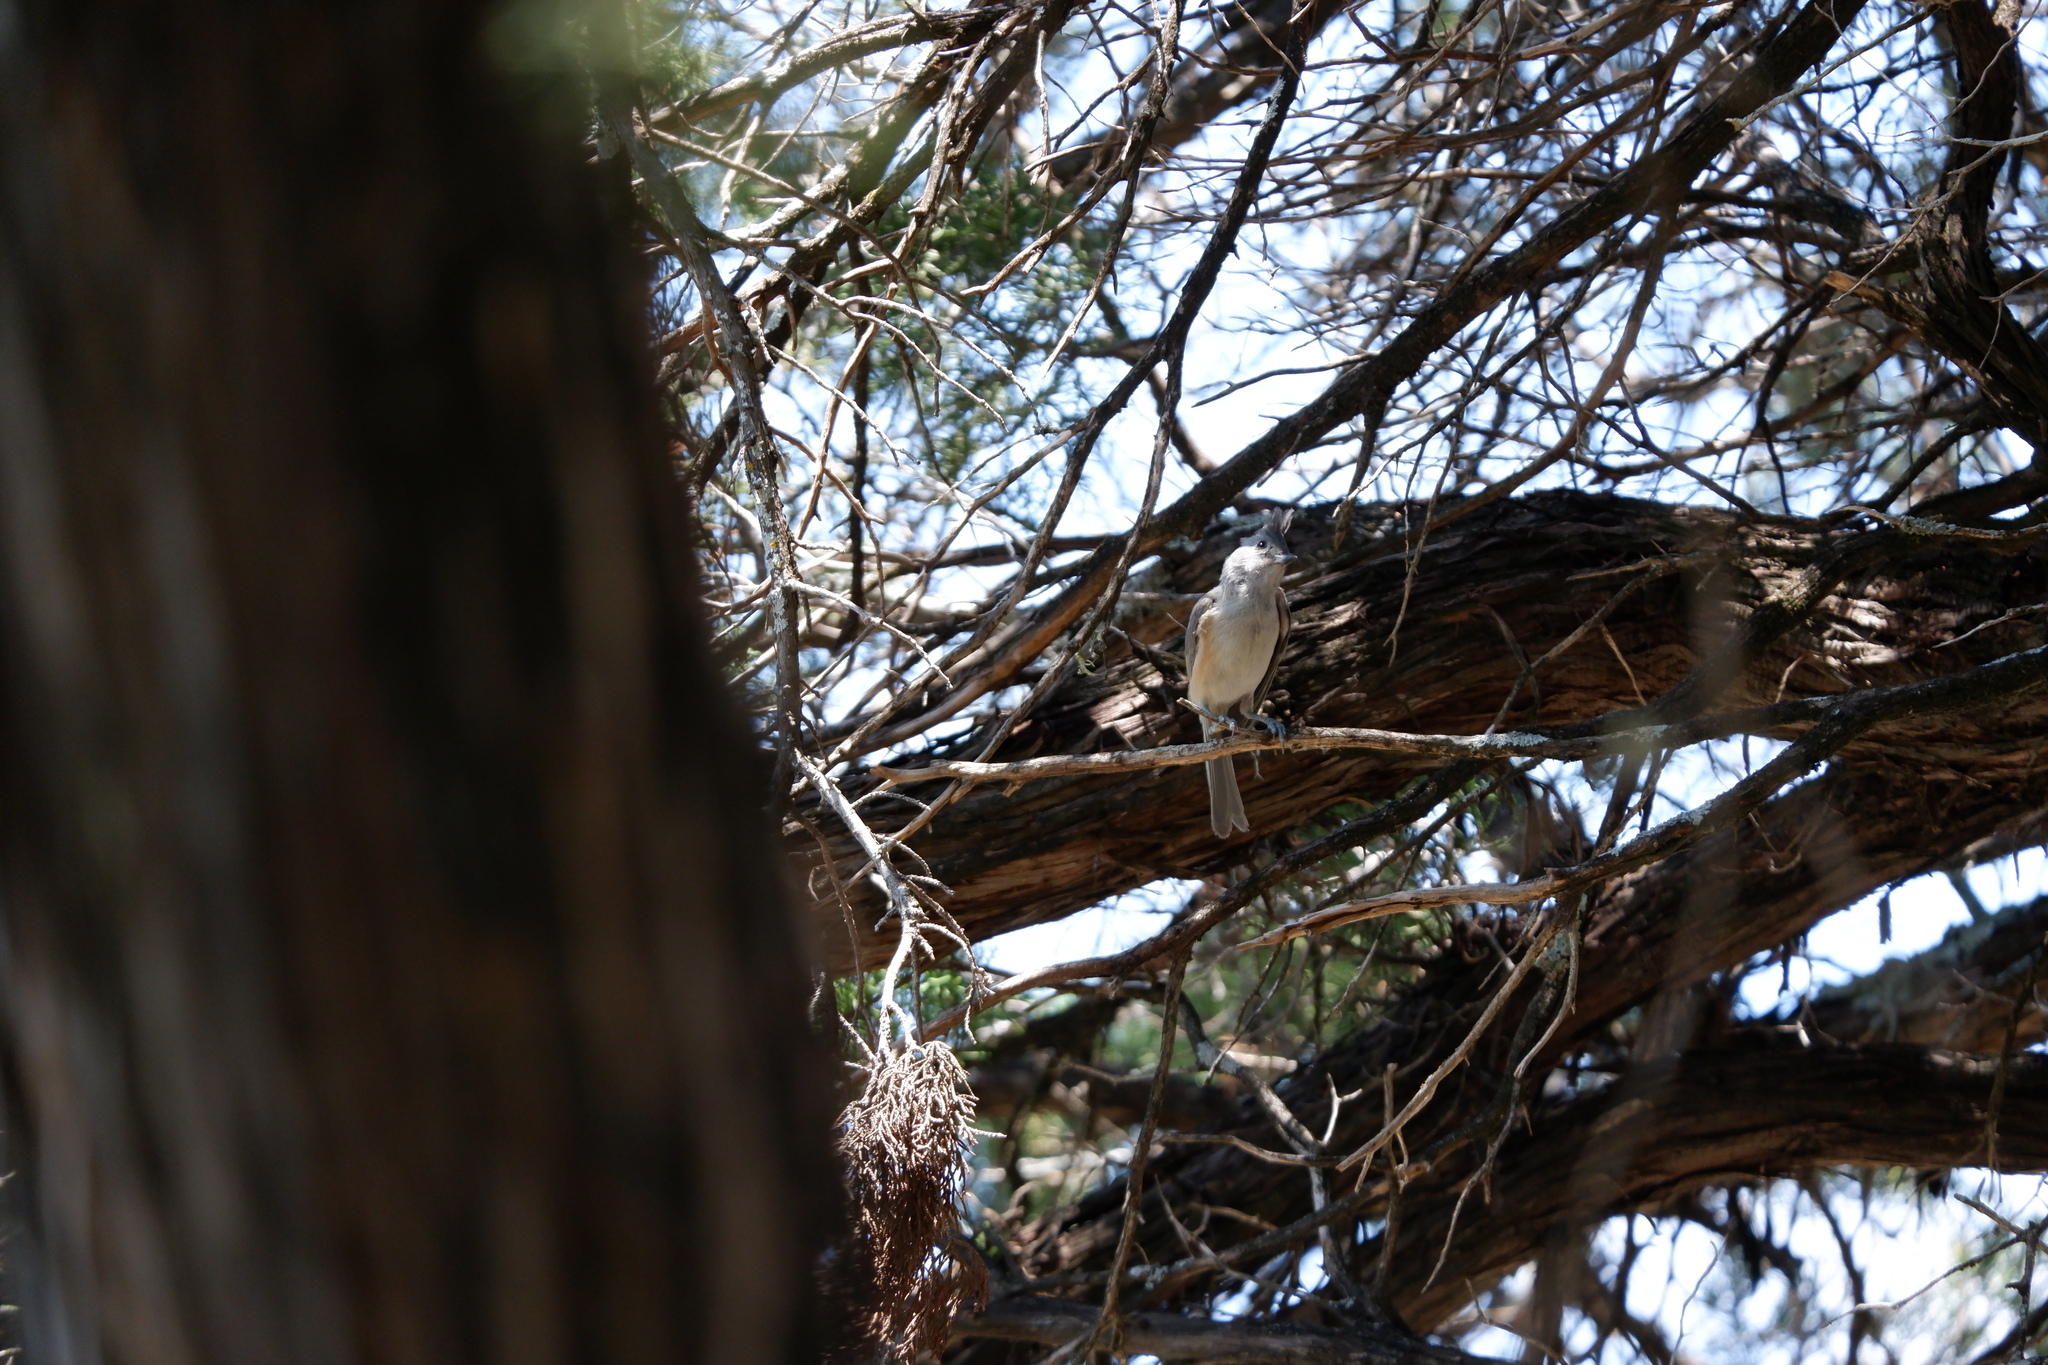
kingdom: Animalia
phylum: Chordata
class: Aves
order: Passeriformes
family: Paridae
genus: Baeolophus
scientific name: Baeolophus atricristatus
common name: Black-crested titmouse
